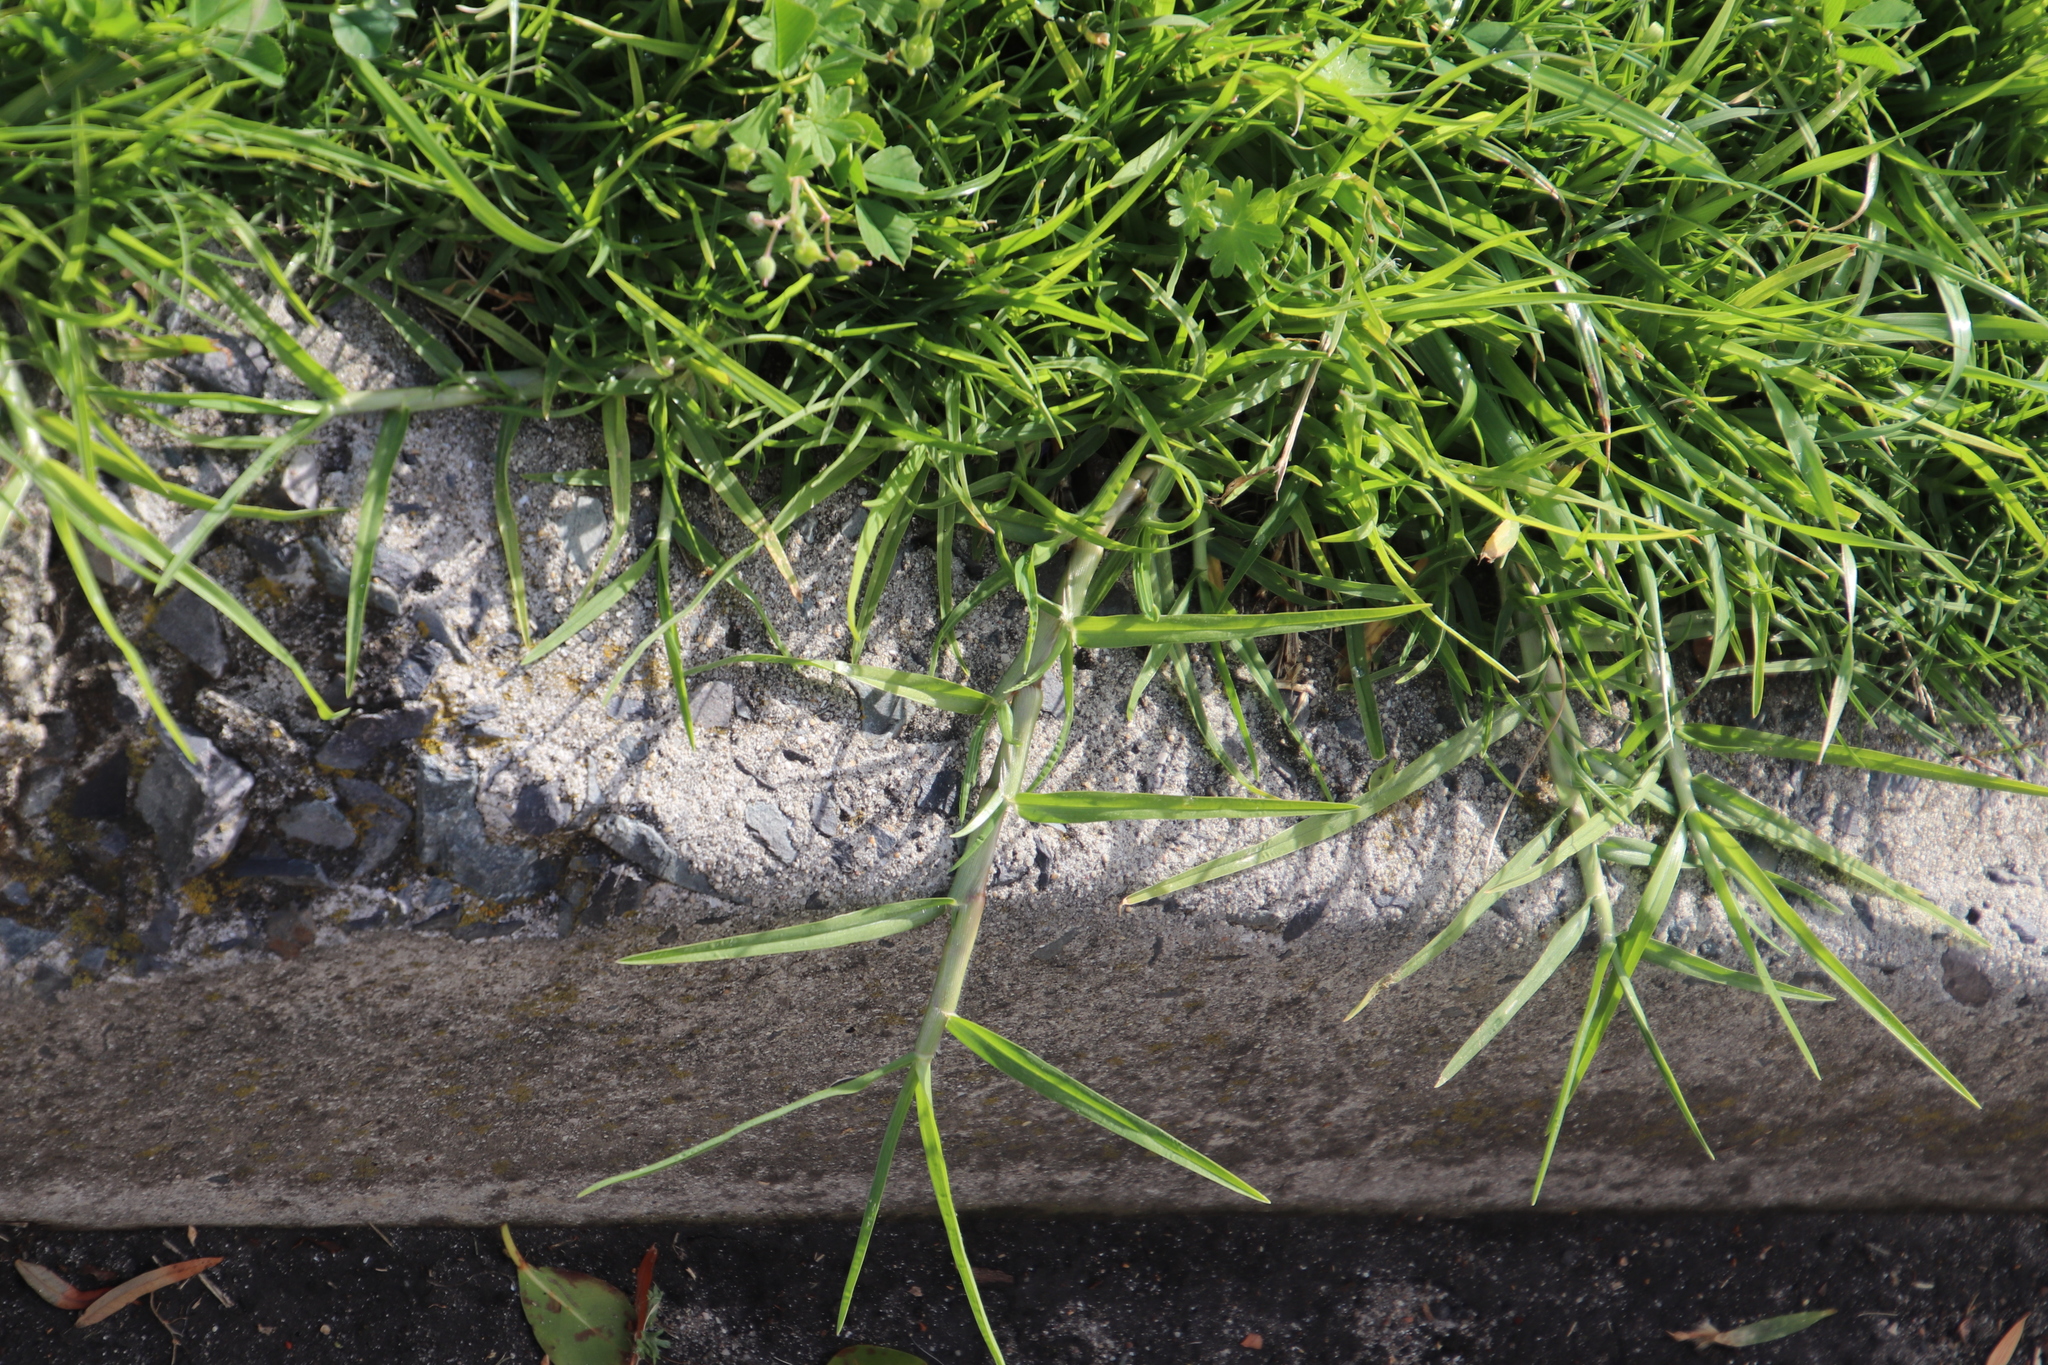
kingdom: Plantae
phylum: Tracheophyta
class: Liliopsida
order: Poales
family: Poaceae
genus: Cenchrus
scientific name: Cenchrus clandestinus
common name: Kikuyugrass
